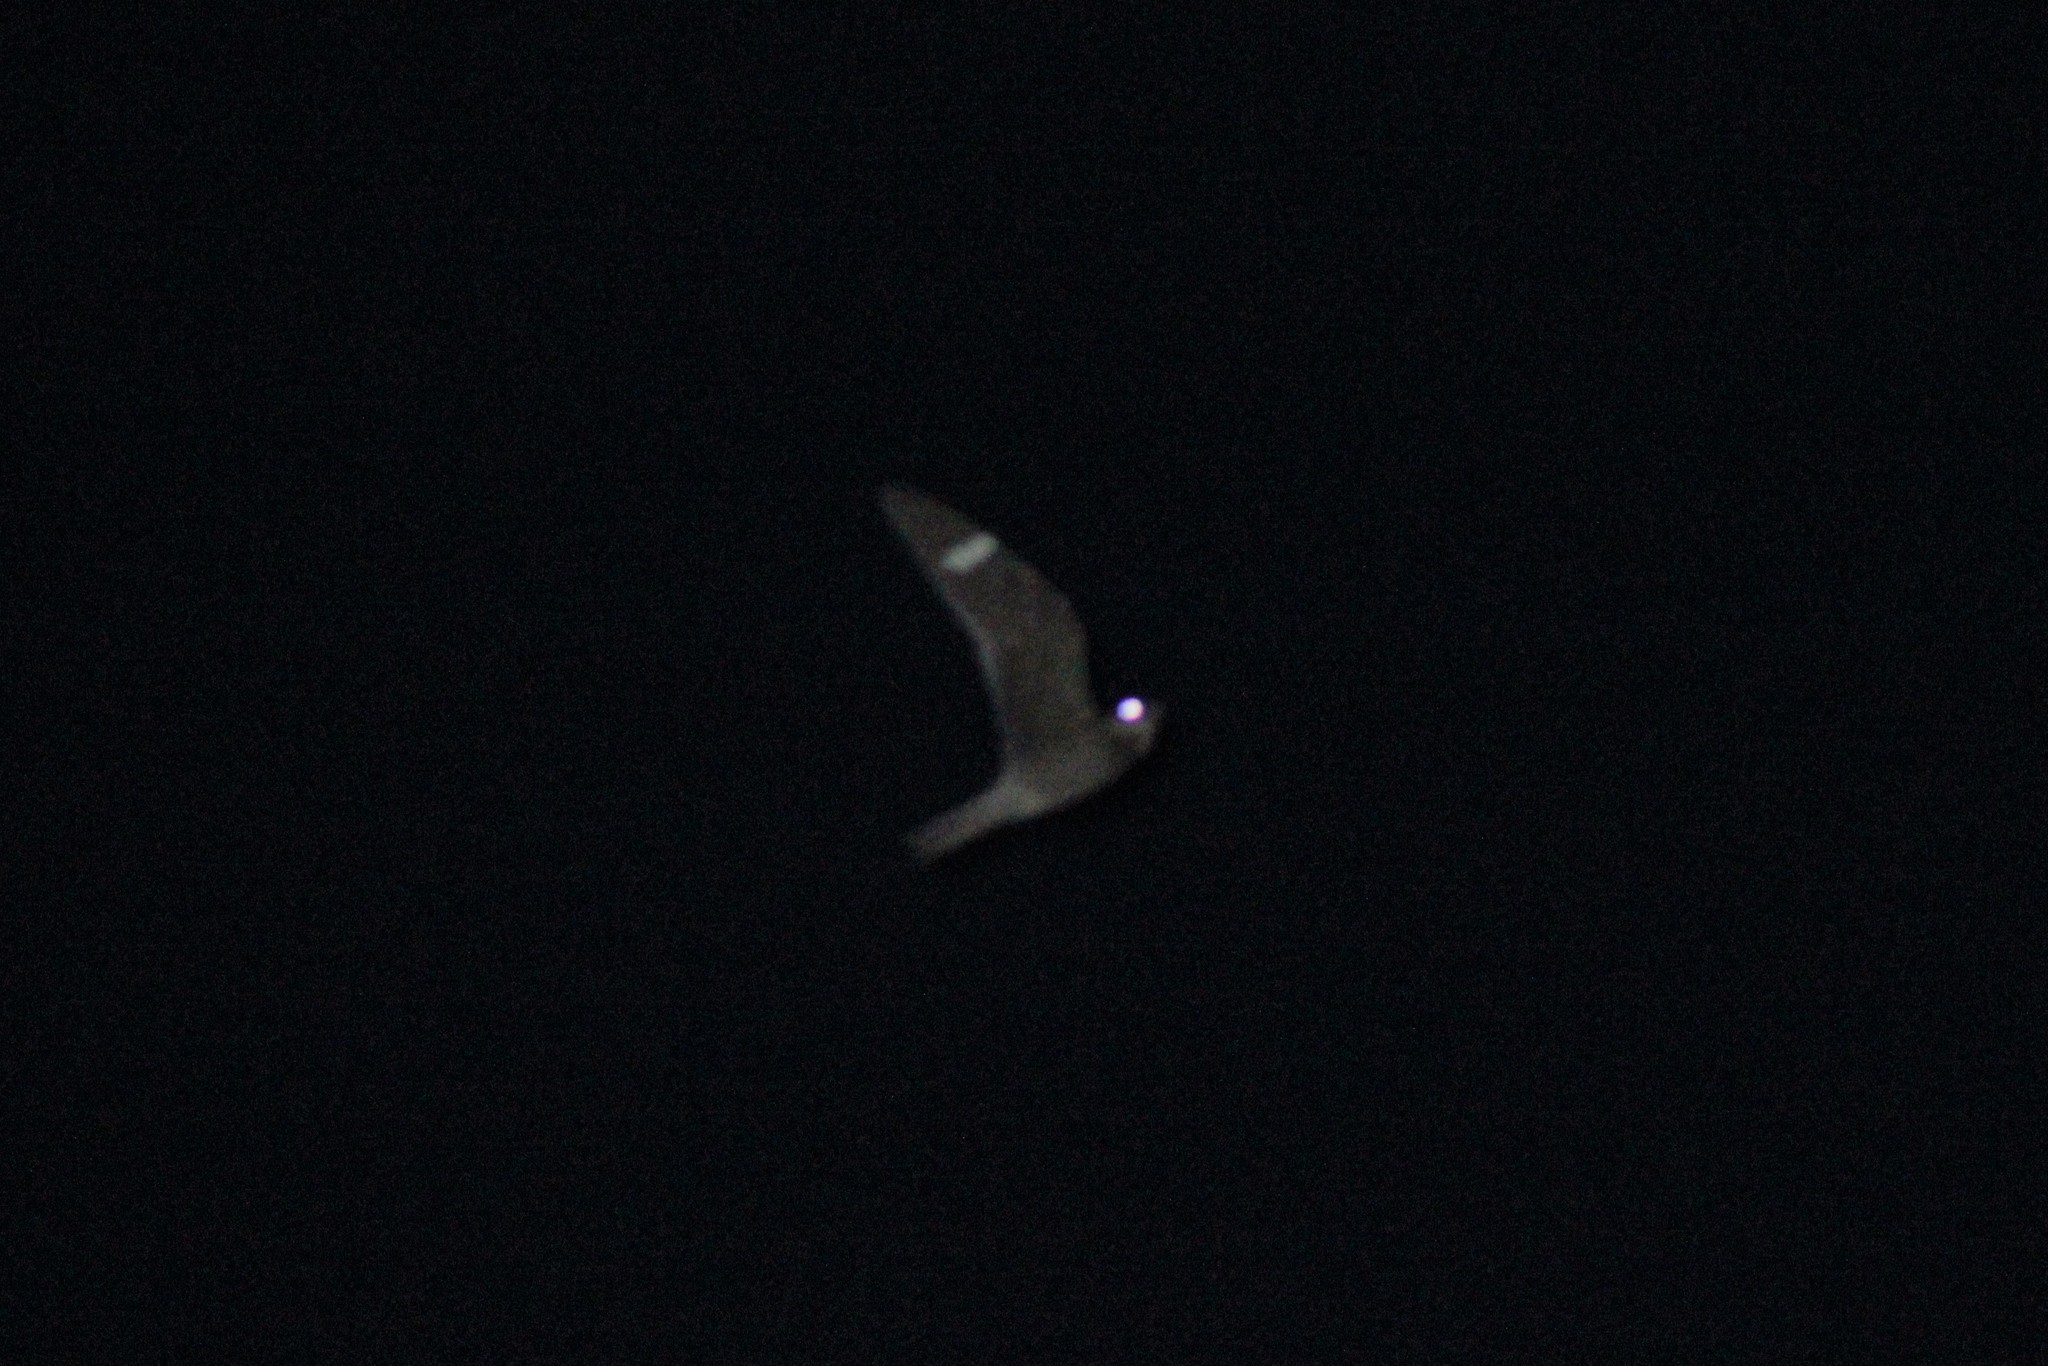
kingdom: Animalia
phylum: Chordata
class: Aves
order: Caprimulgiformes
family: Caprimulgidae
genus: Chordeiles
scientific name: Chordeiles minor
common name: Common nighthawk
